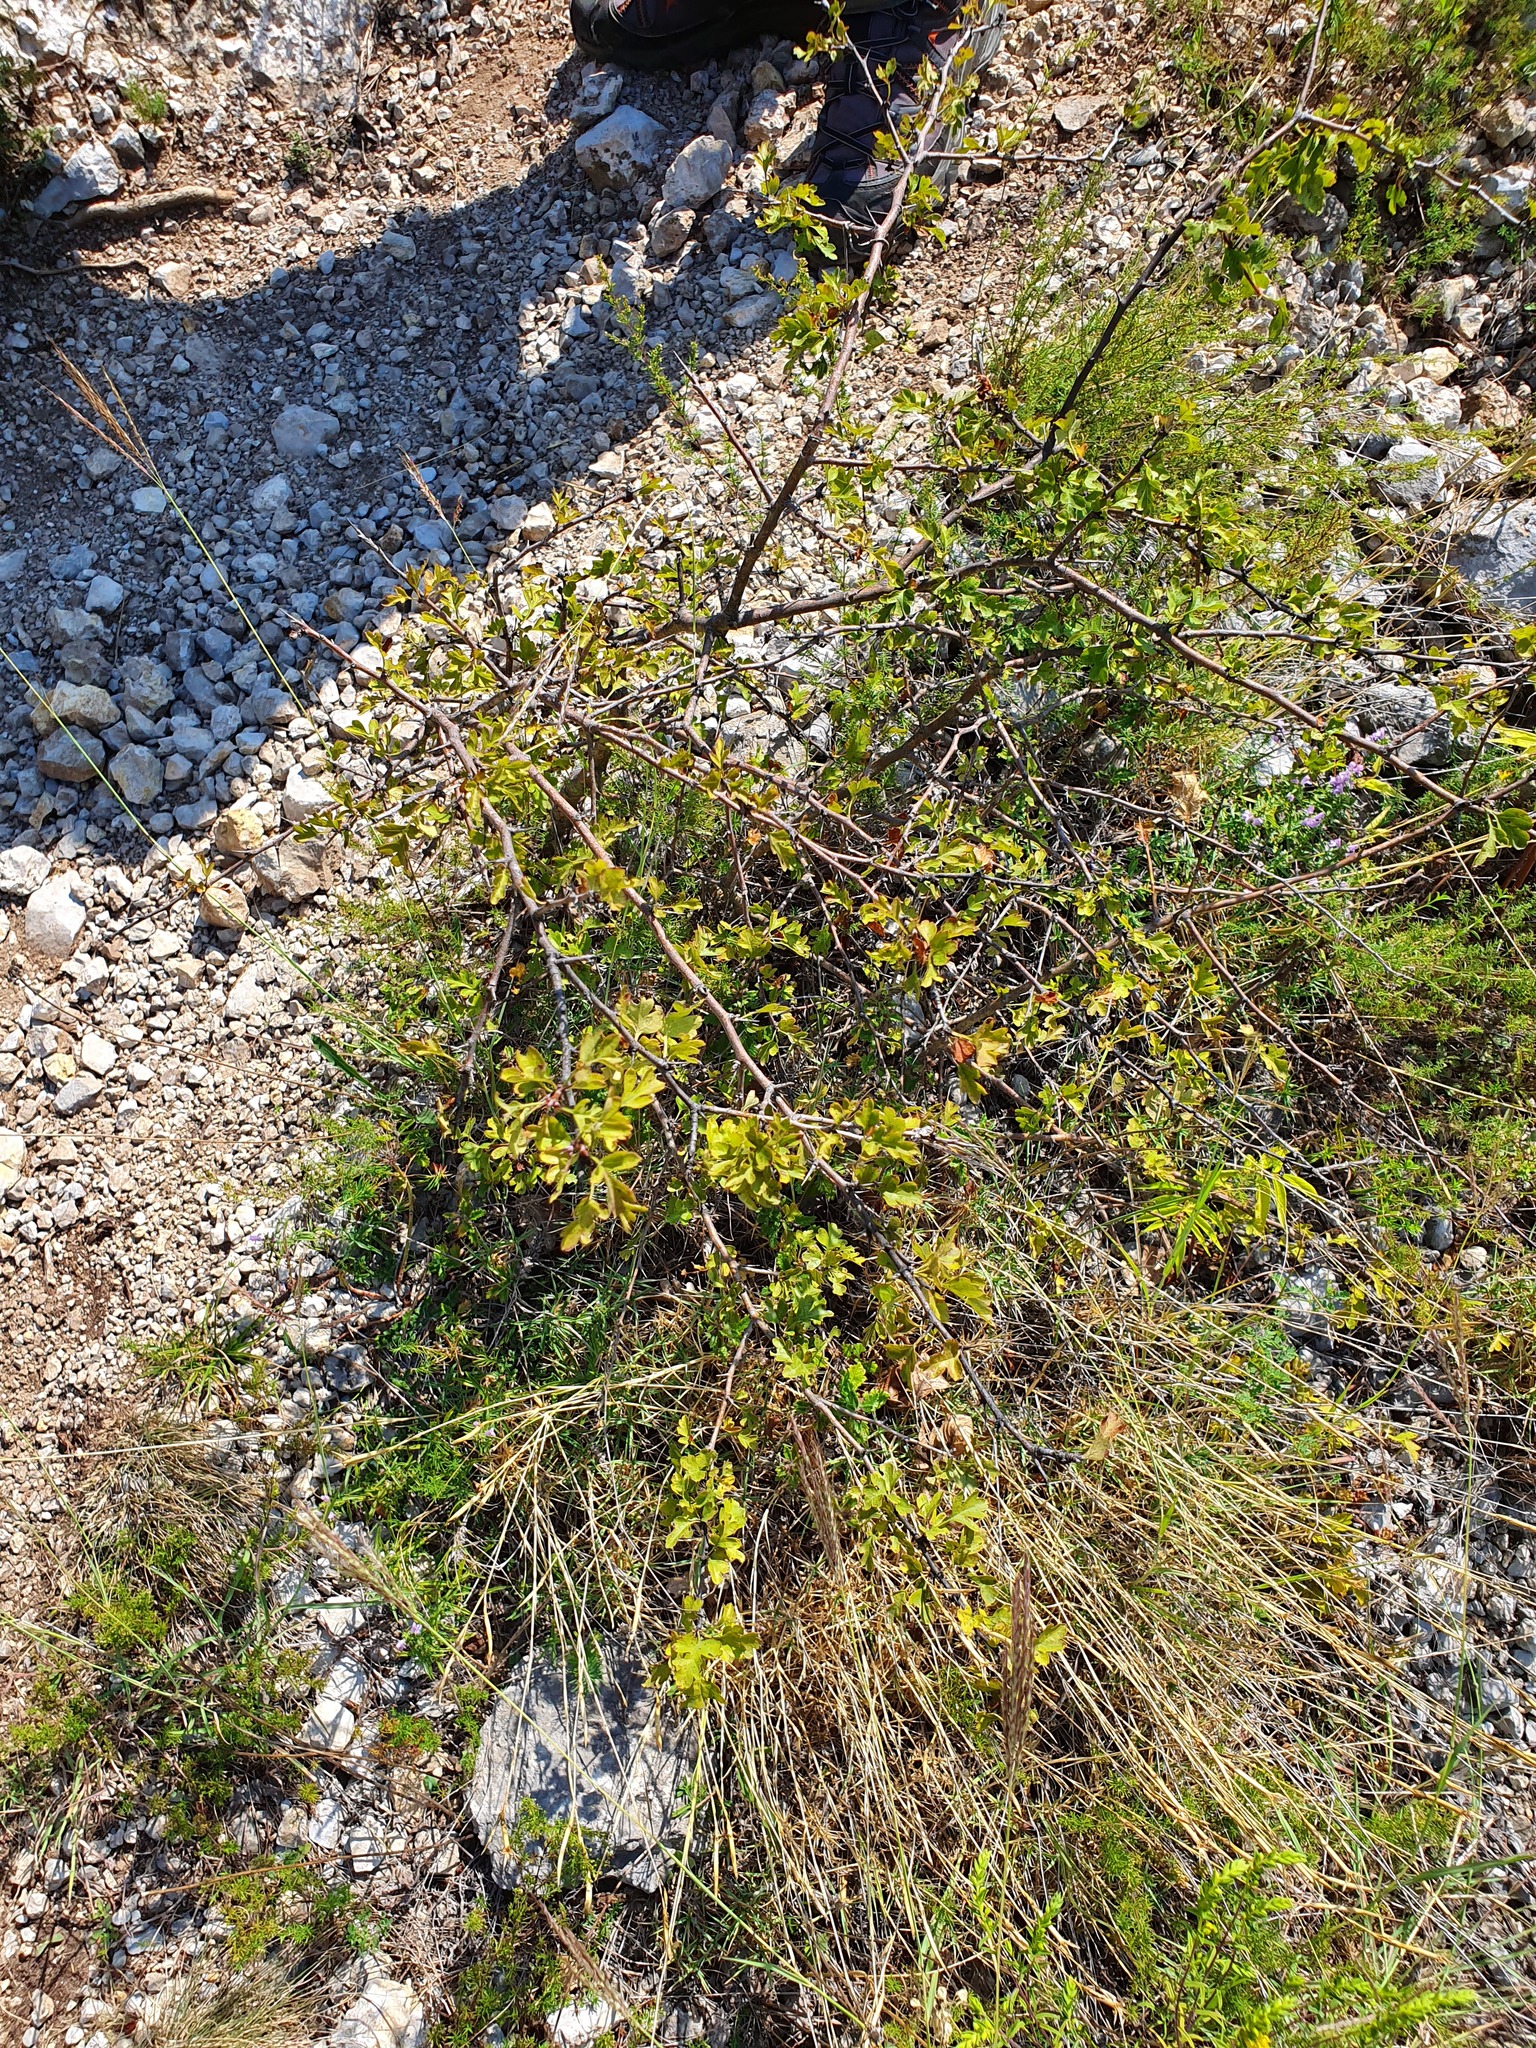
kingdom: Plantae
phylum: Tracheophyta
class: Magnoliopsida
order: Rosales
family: Rosaceae
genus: Crataegus
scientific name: Crataegus monogyna
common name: Hawthorn
